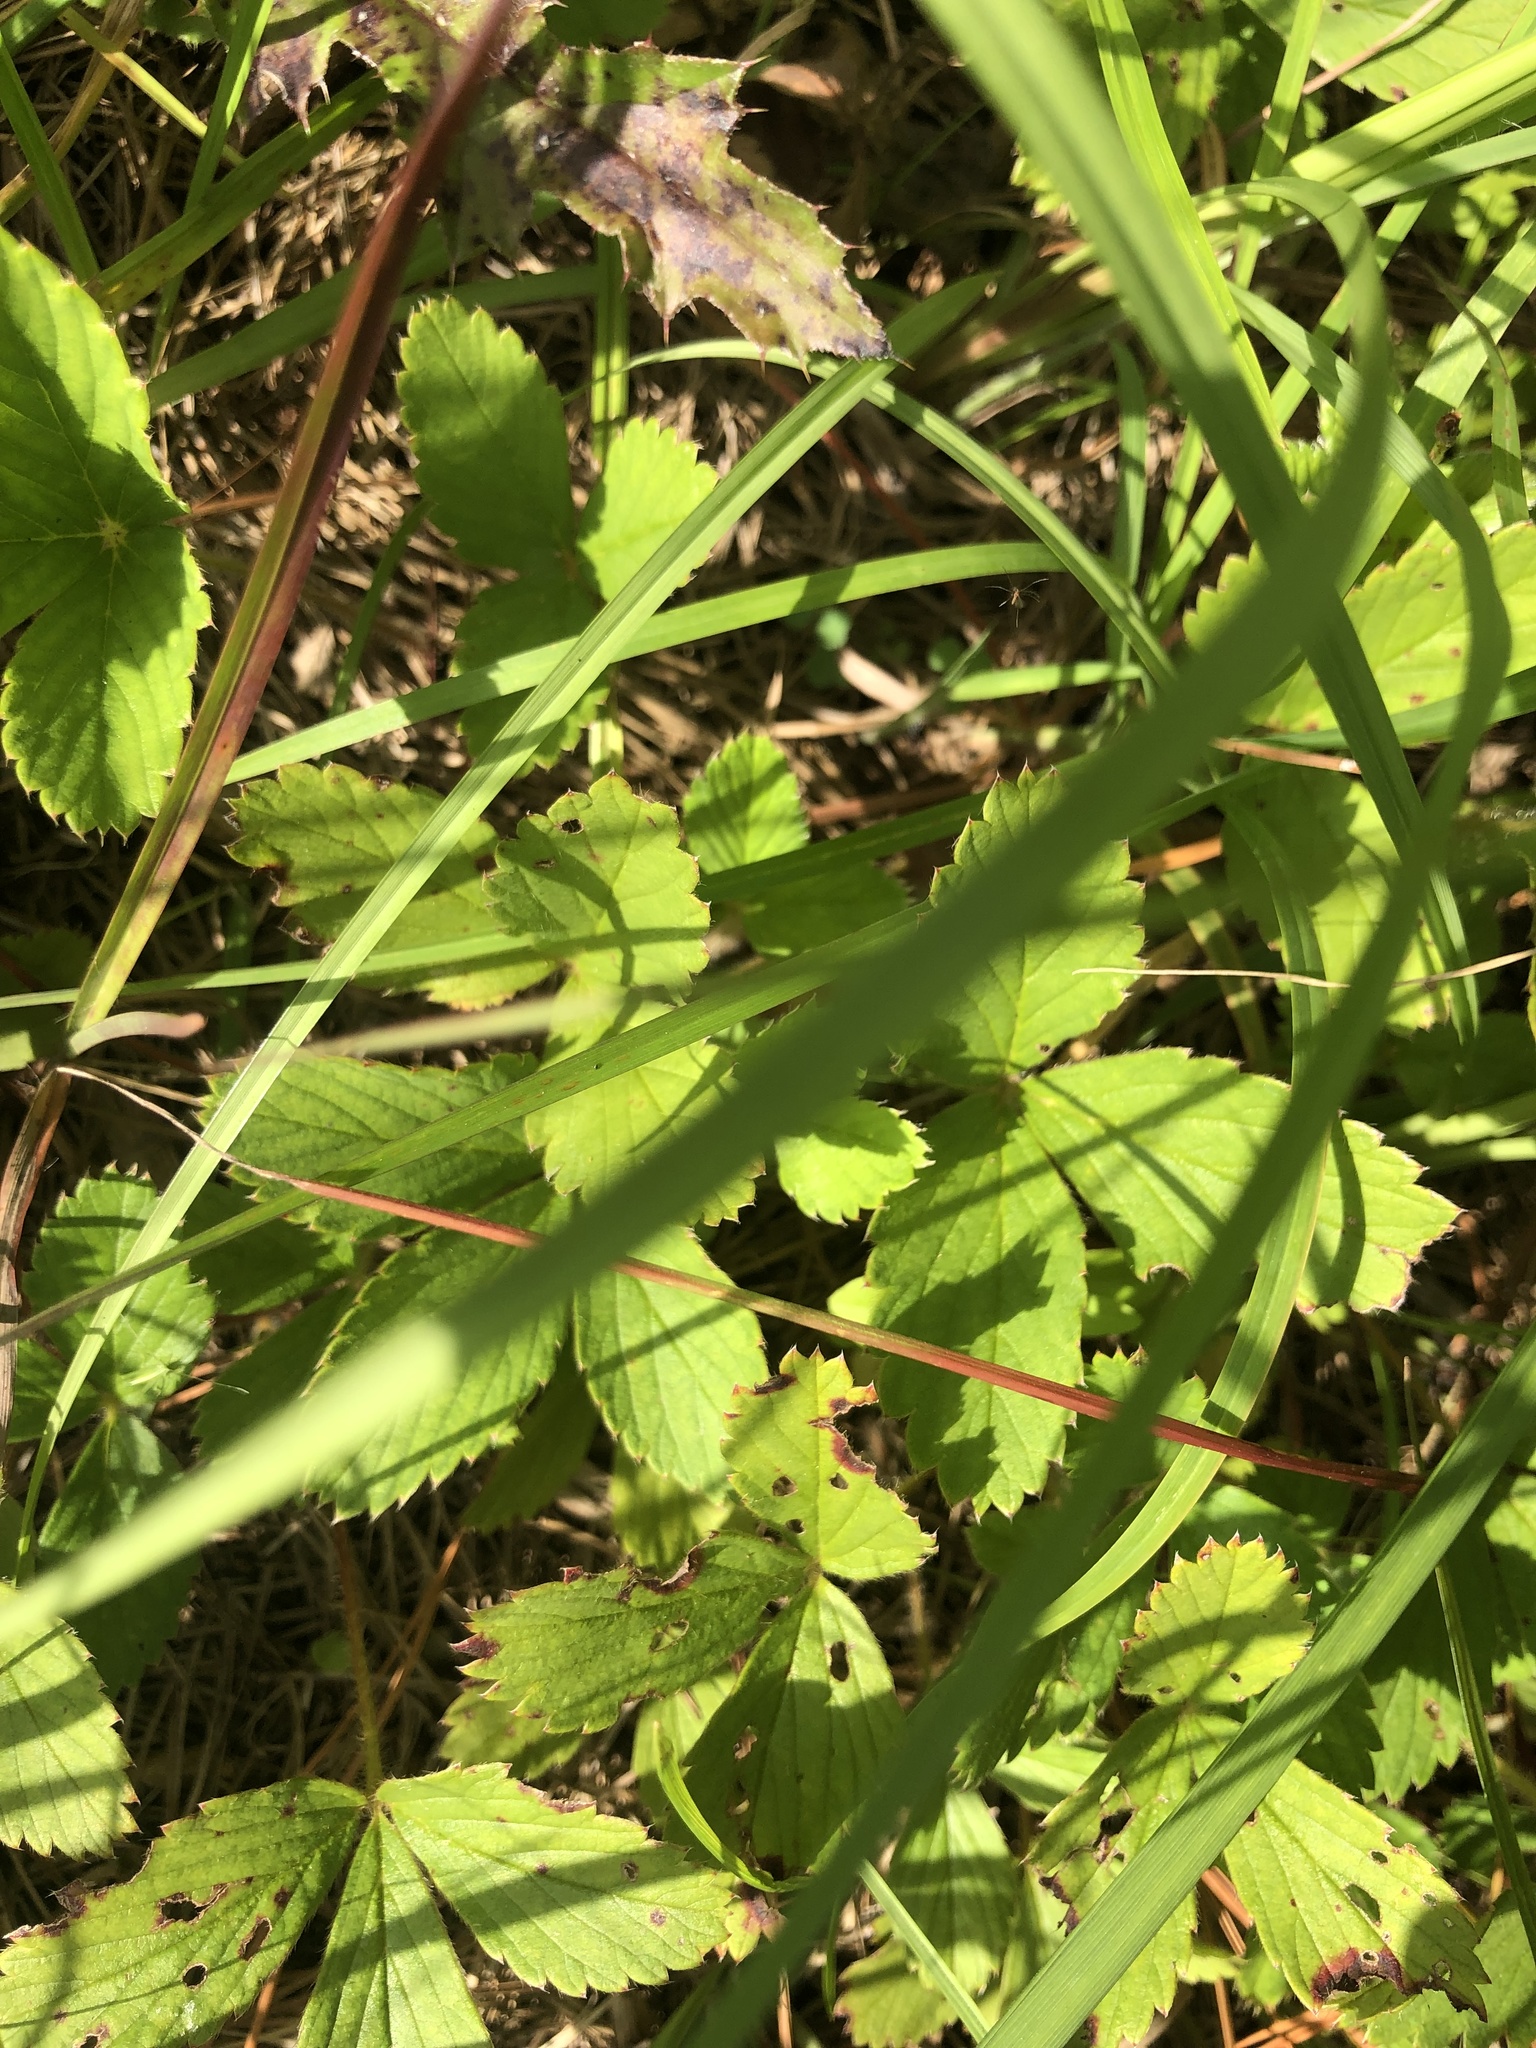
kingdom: Plantae
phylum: Tracheophyta
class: Magnoliopsida
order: Rosales
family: Rosaceae
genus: Fragaria
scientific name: Fragaria virginiana
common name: Thickleaved wild strawberry
